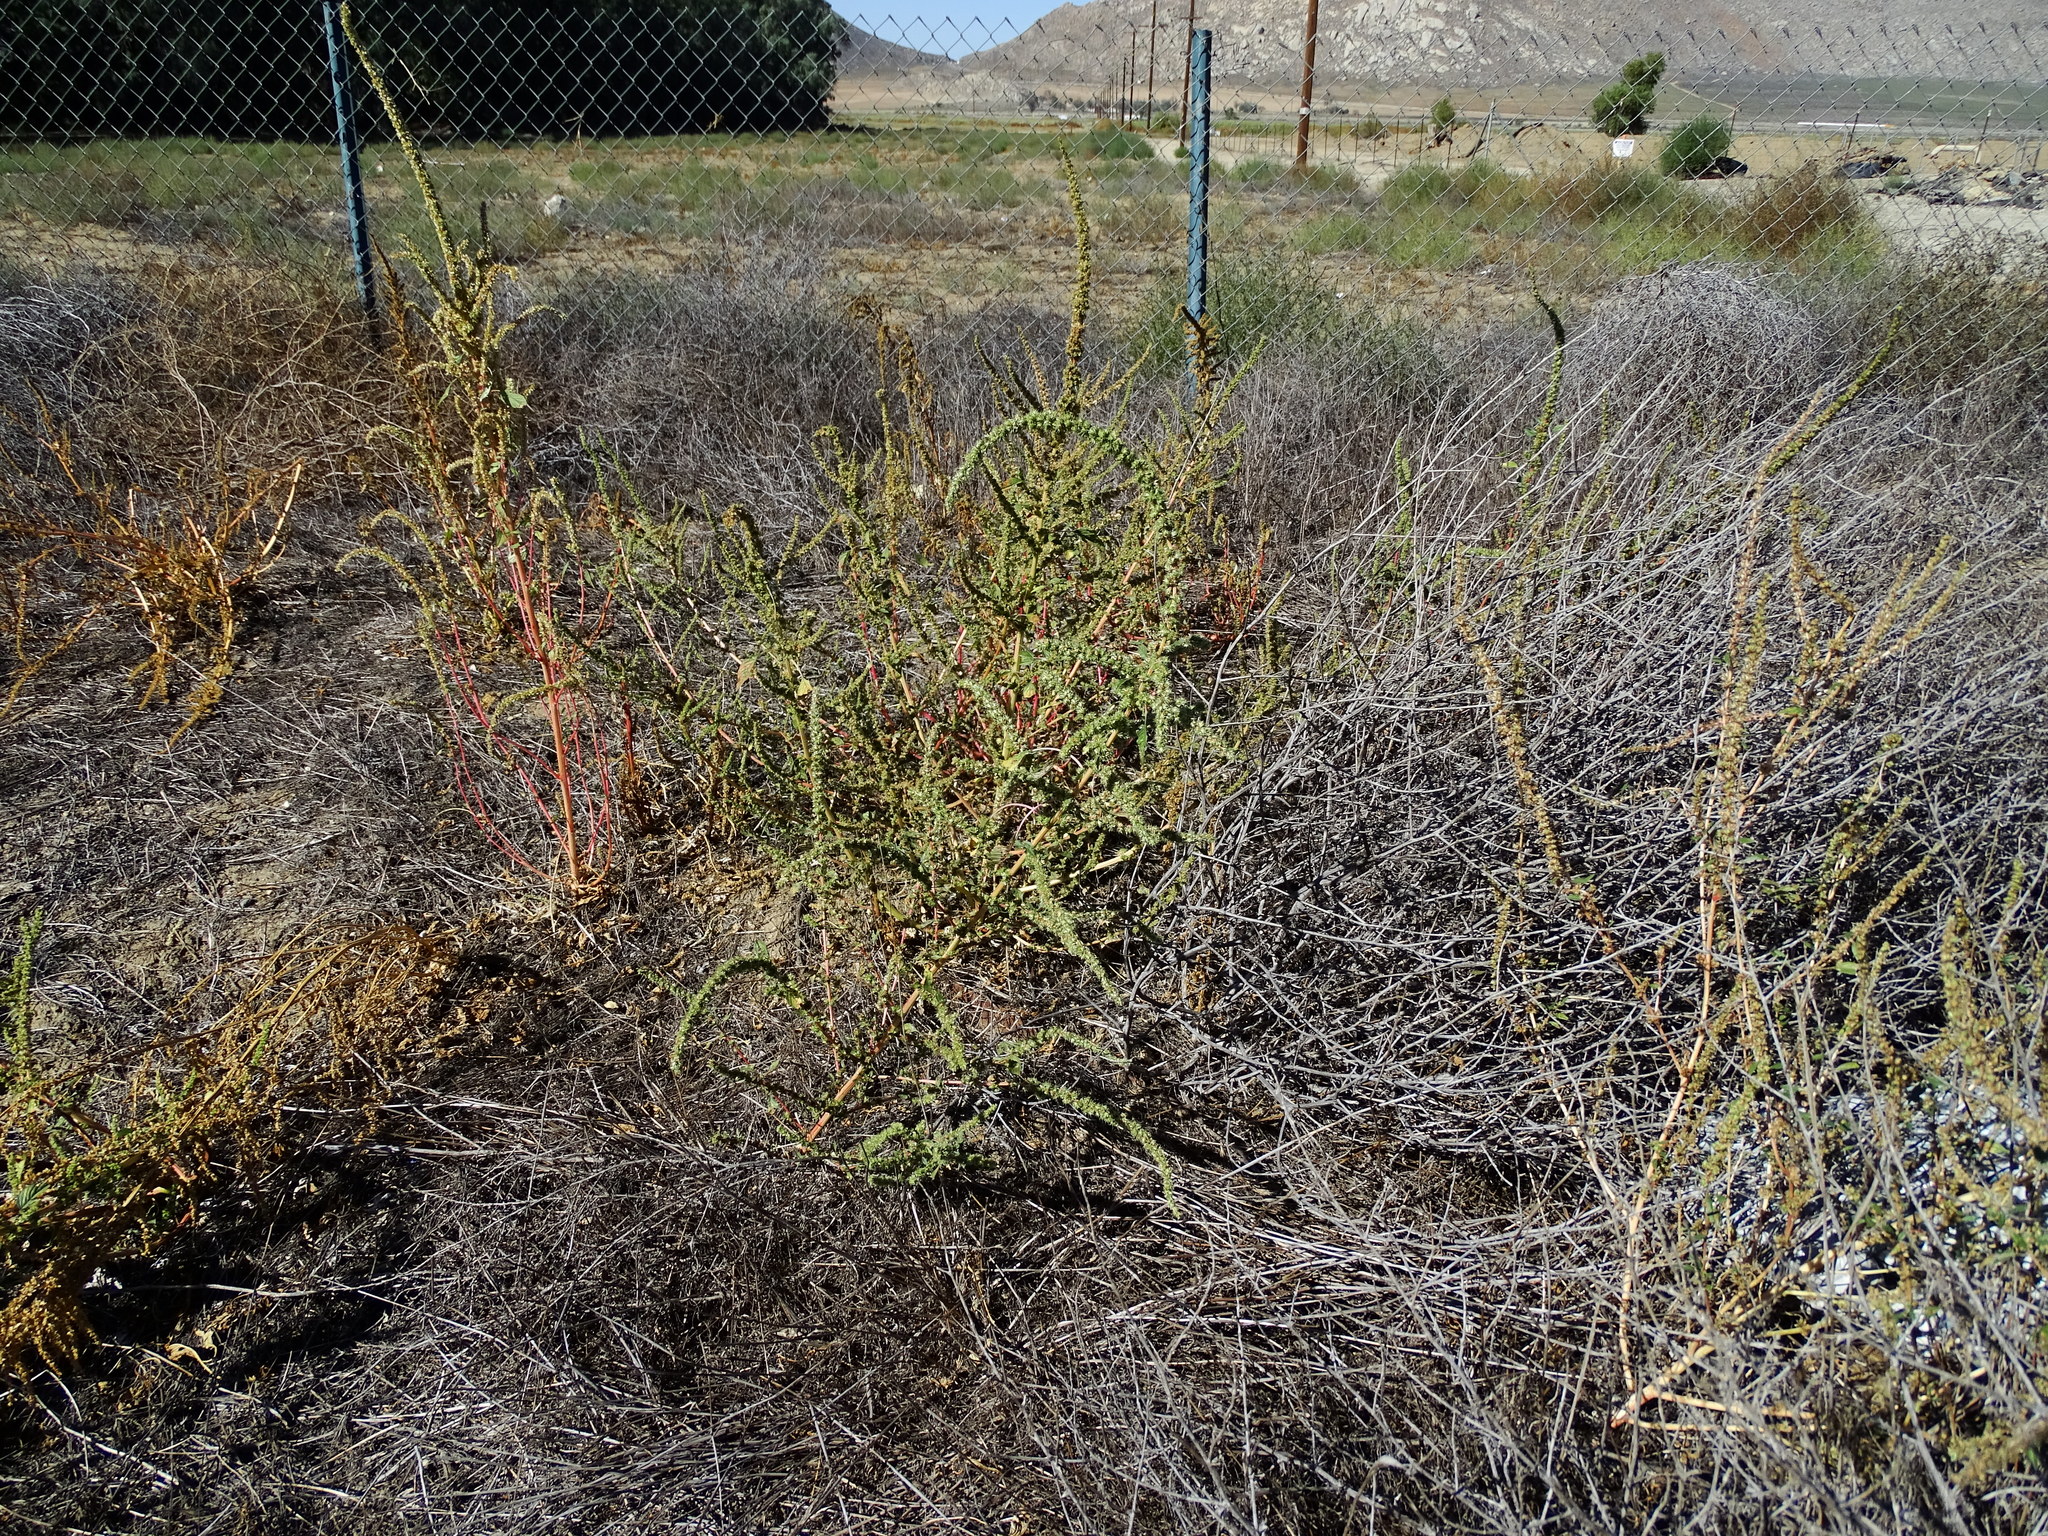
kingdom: Plantae
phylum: Tracheophyta
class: Magnoliopsida
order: Caryophyllales
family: Amaranthaceae
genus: Amaranthus
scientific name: Amaranthus palmeri
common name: Dioecious amaranth
